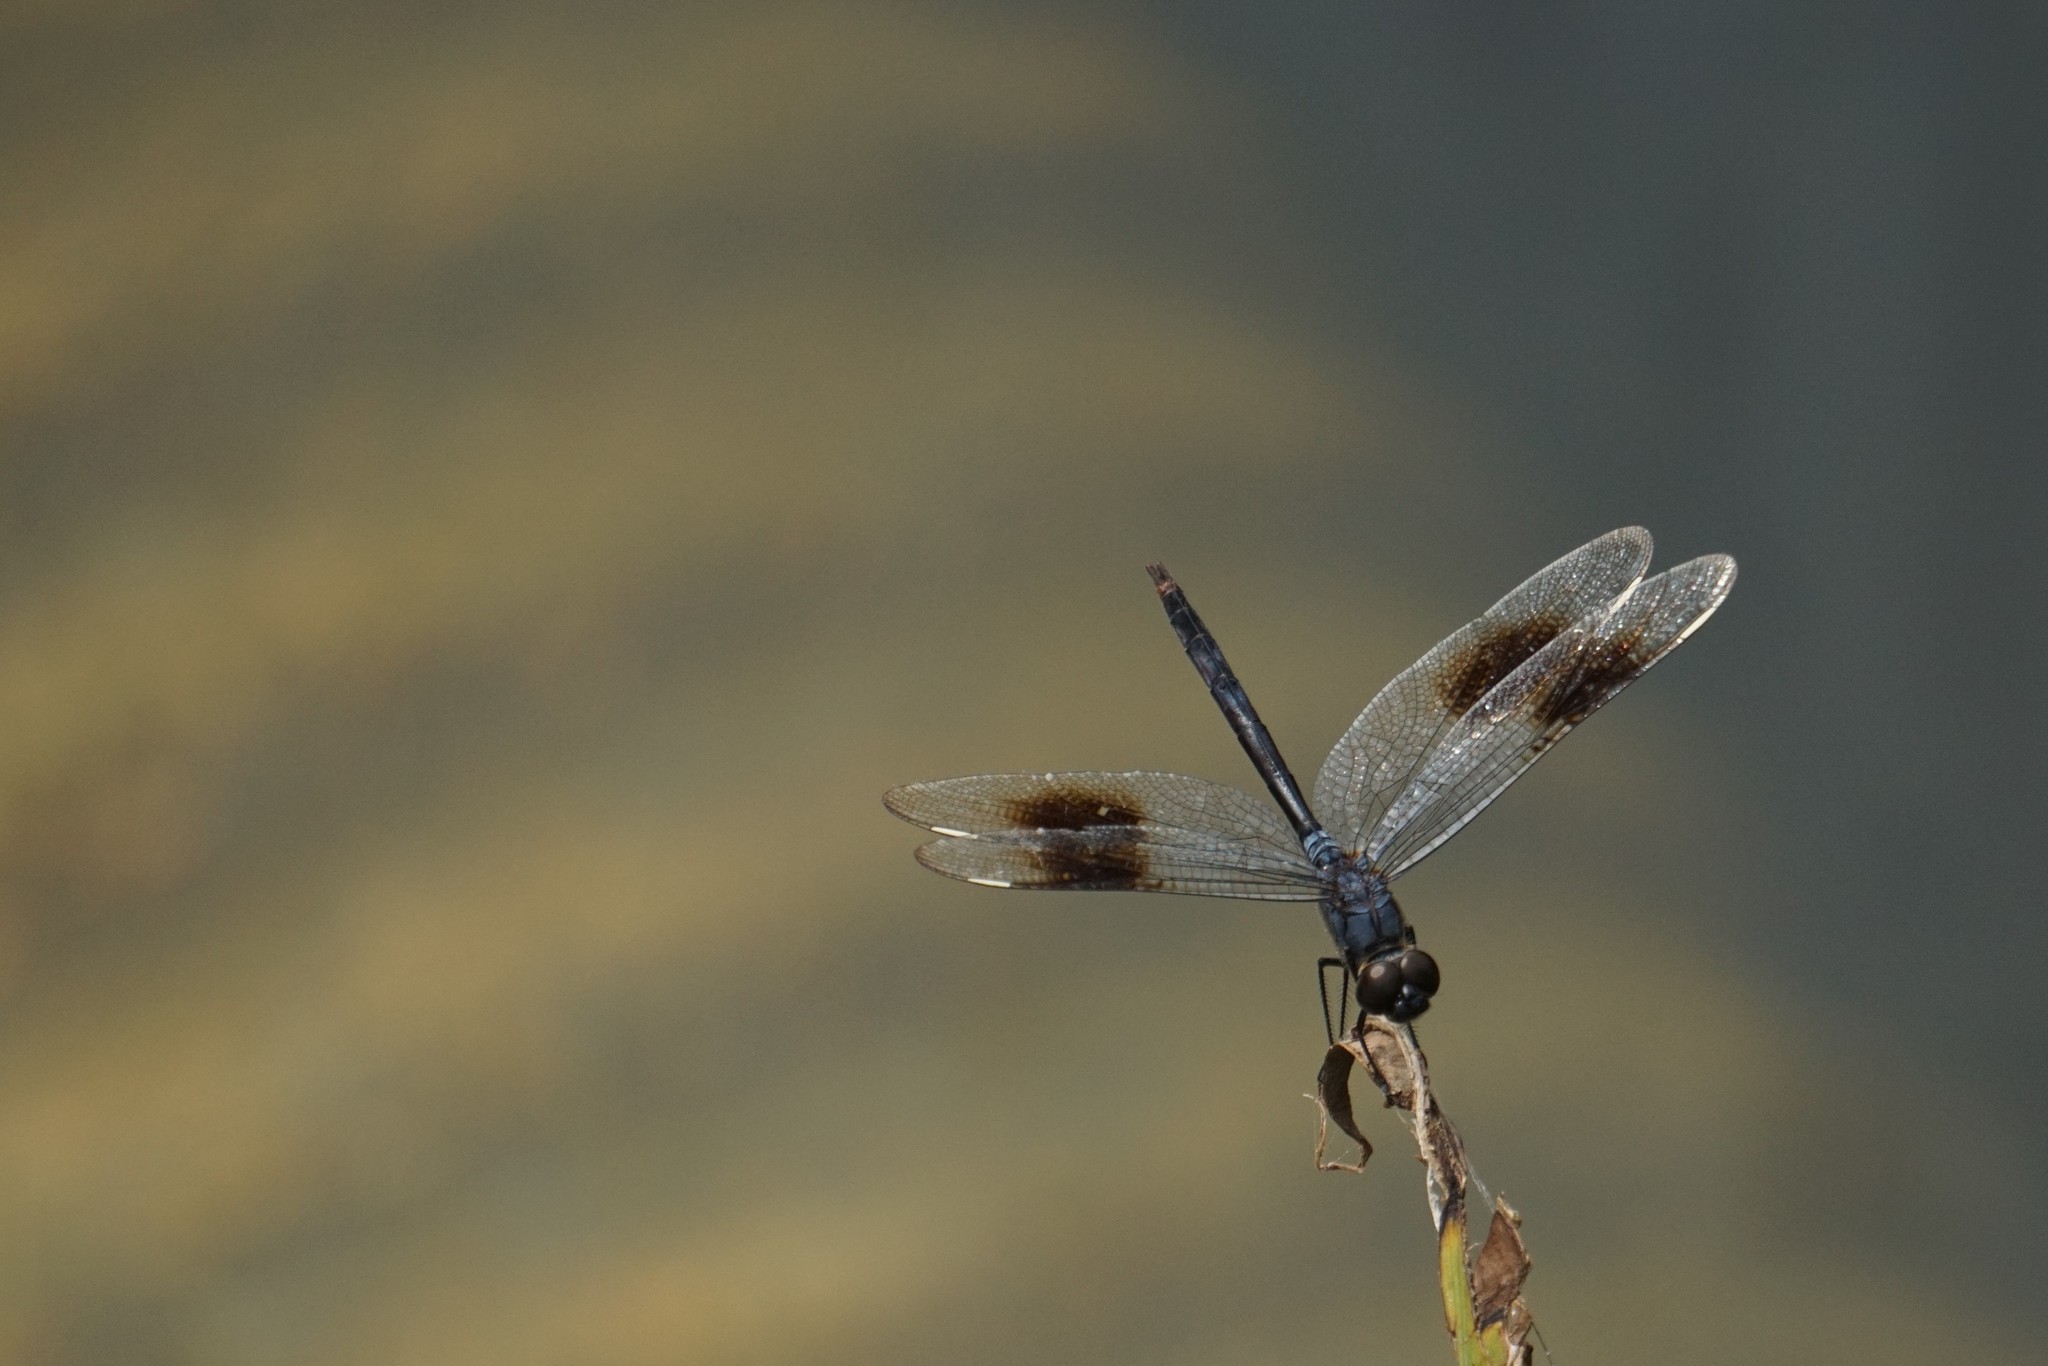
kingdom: Animalia
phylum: Arthropoda
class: Insecta
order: Odonata
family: Libellulidae
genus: Brachymesia
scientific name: Brachymesia gravida
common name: Four-spotted pennant
